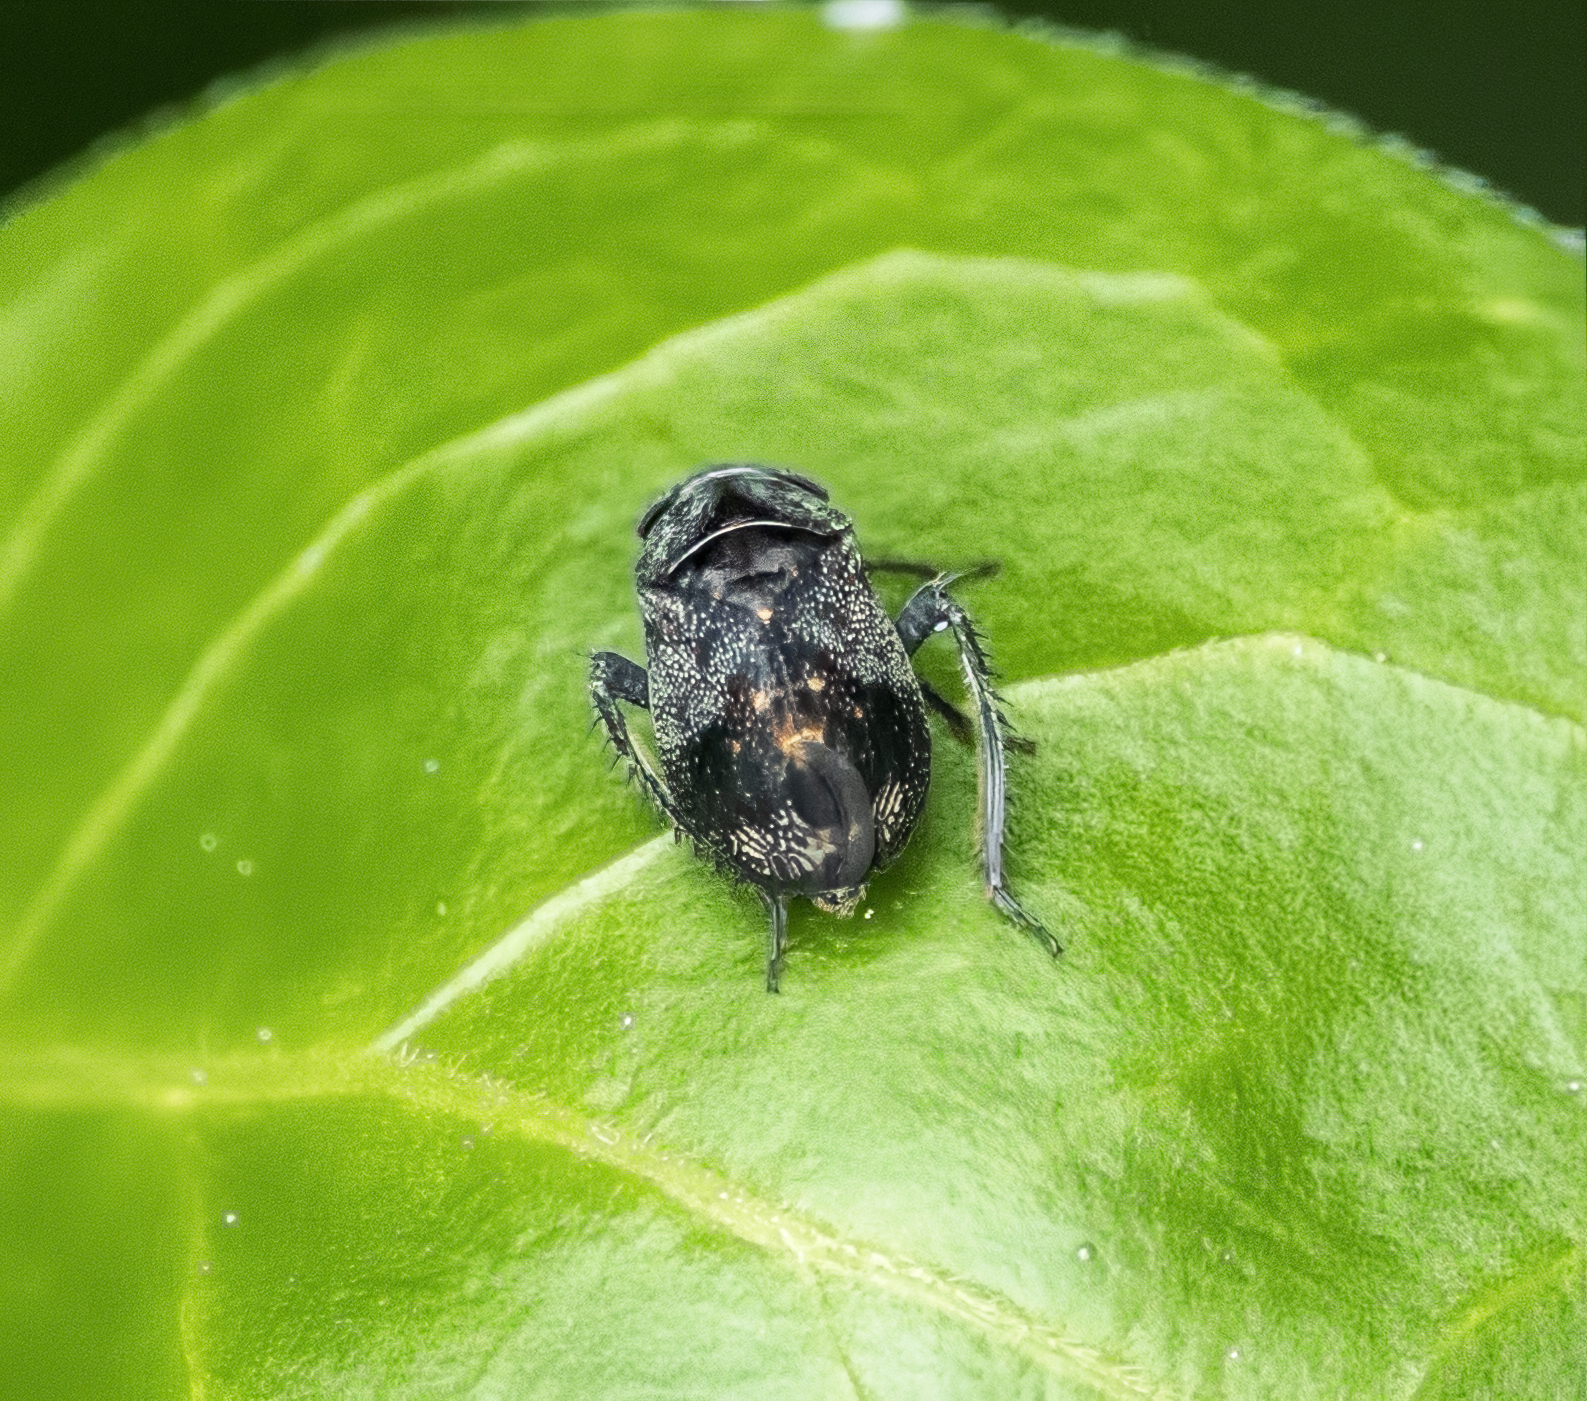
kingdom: Animalia
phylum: Arthropoda
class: Insecta
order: Hemiptera
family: Cicadellidae
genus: Penthimia
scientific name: Penthimia americana
